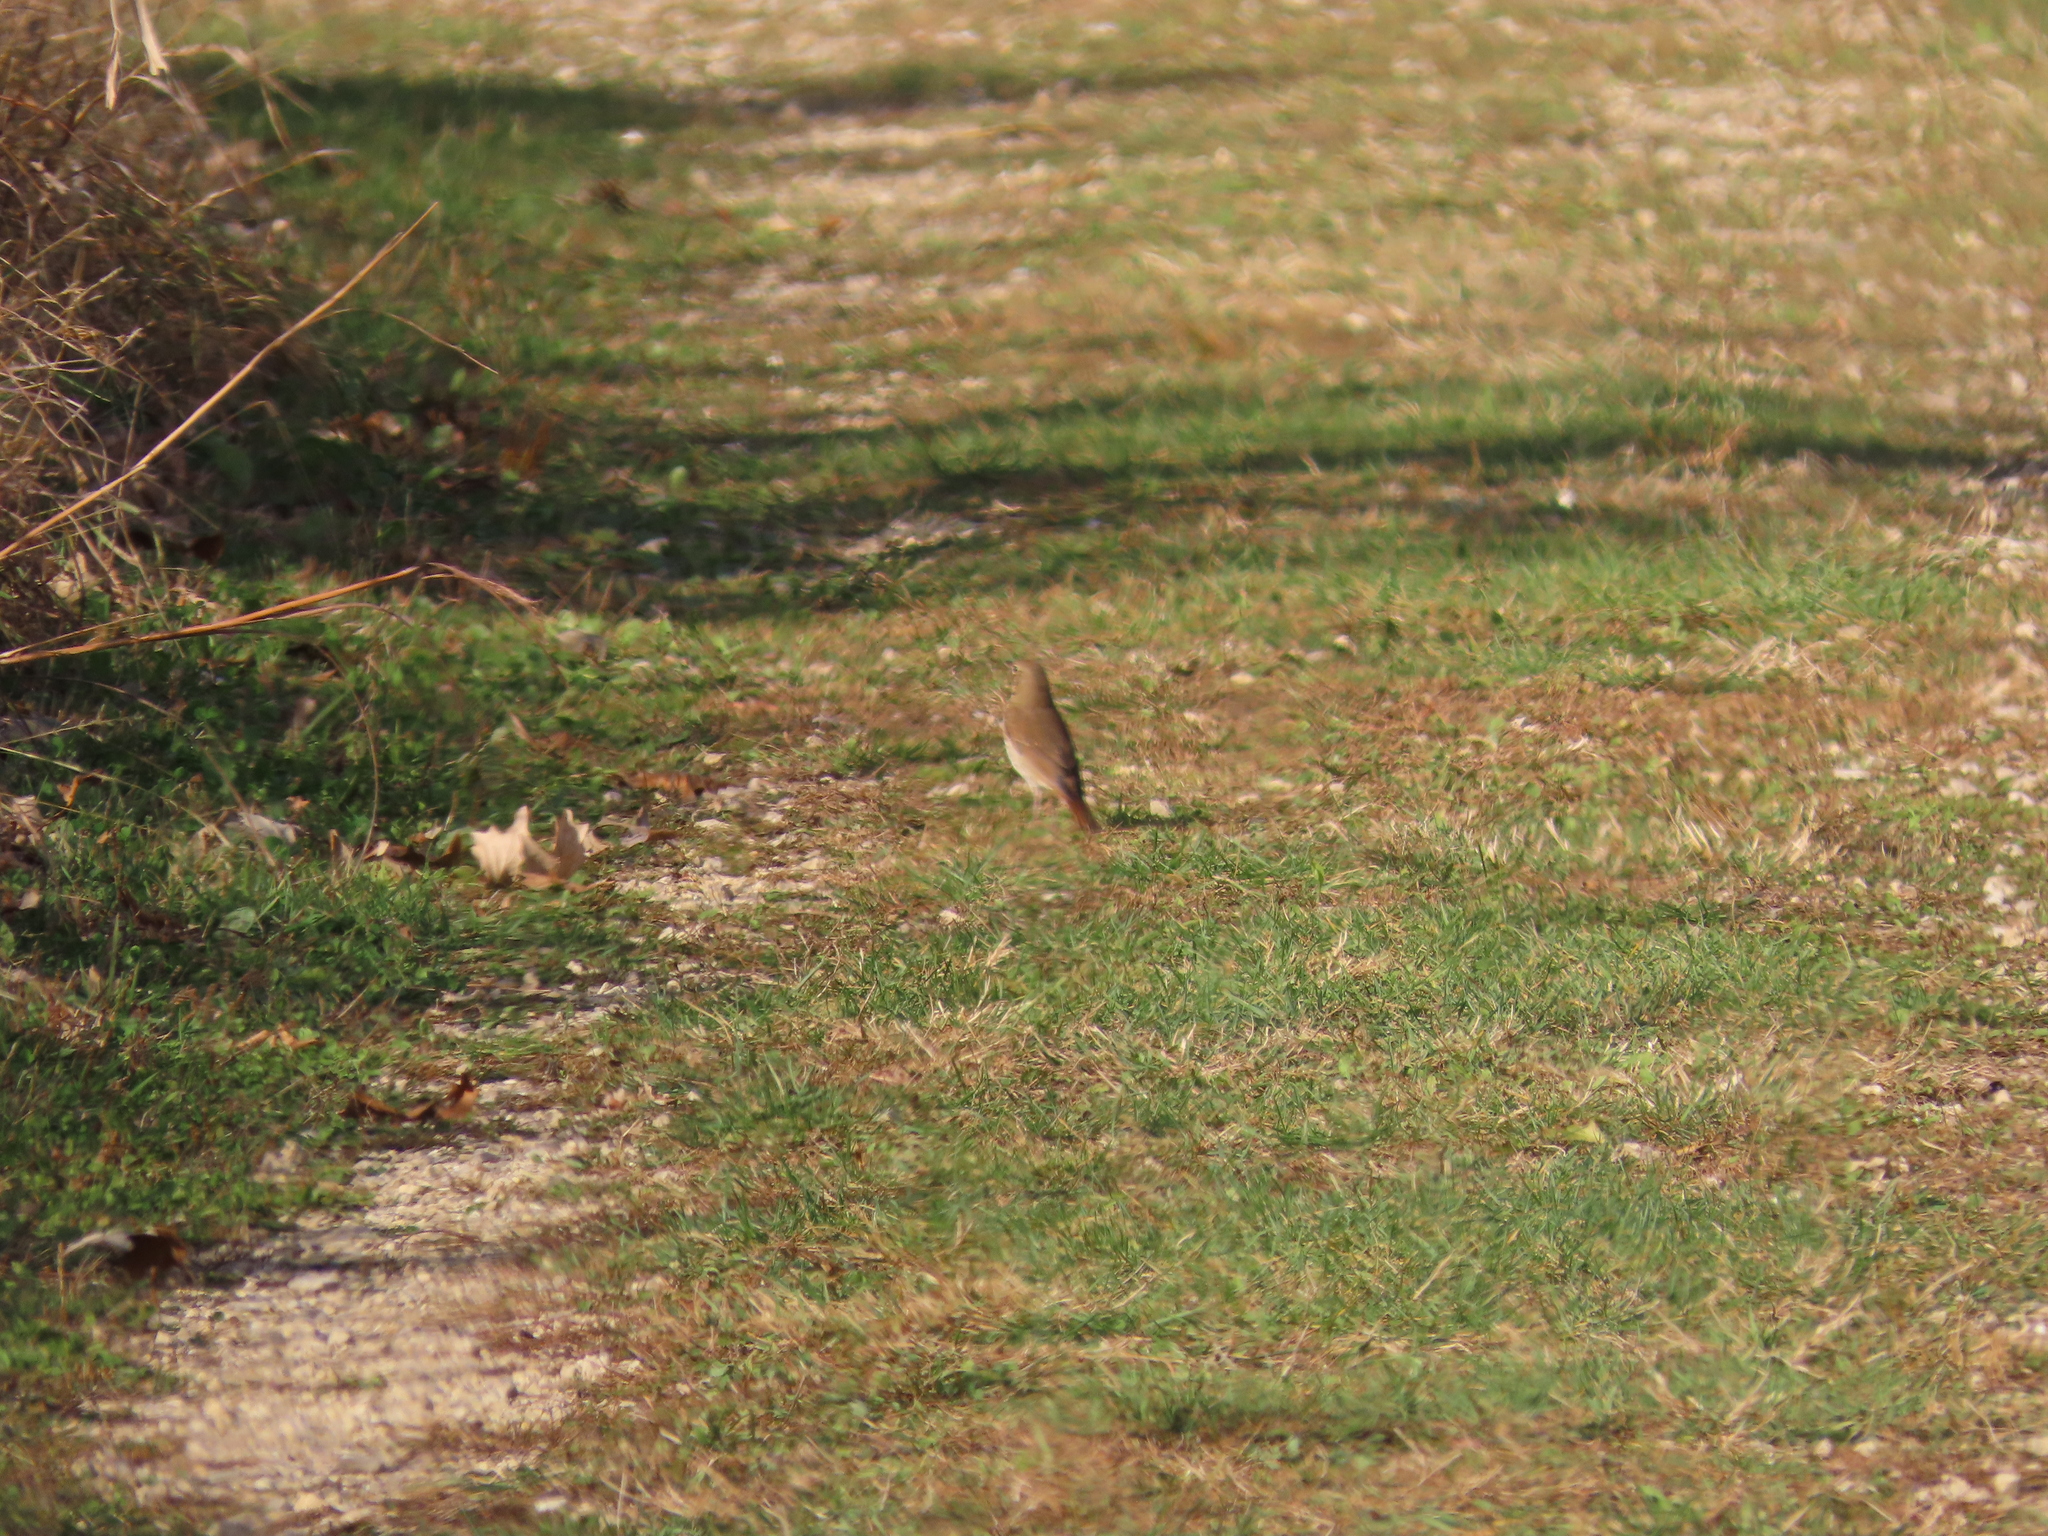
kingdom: Animalia
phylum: Chordata
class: Aves
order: Passeriformes
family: Turdidae
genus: Catharus
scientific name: Catharus guttatus
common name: Hermit thrush
